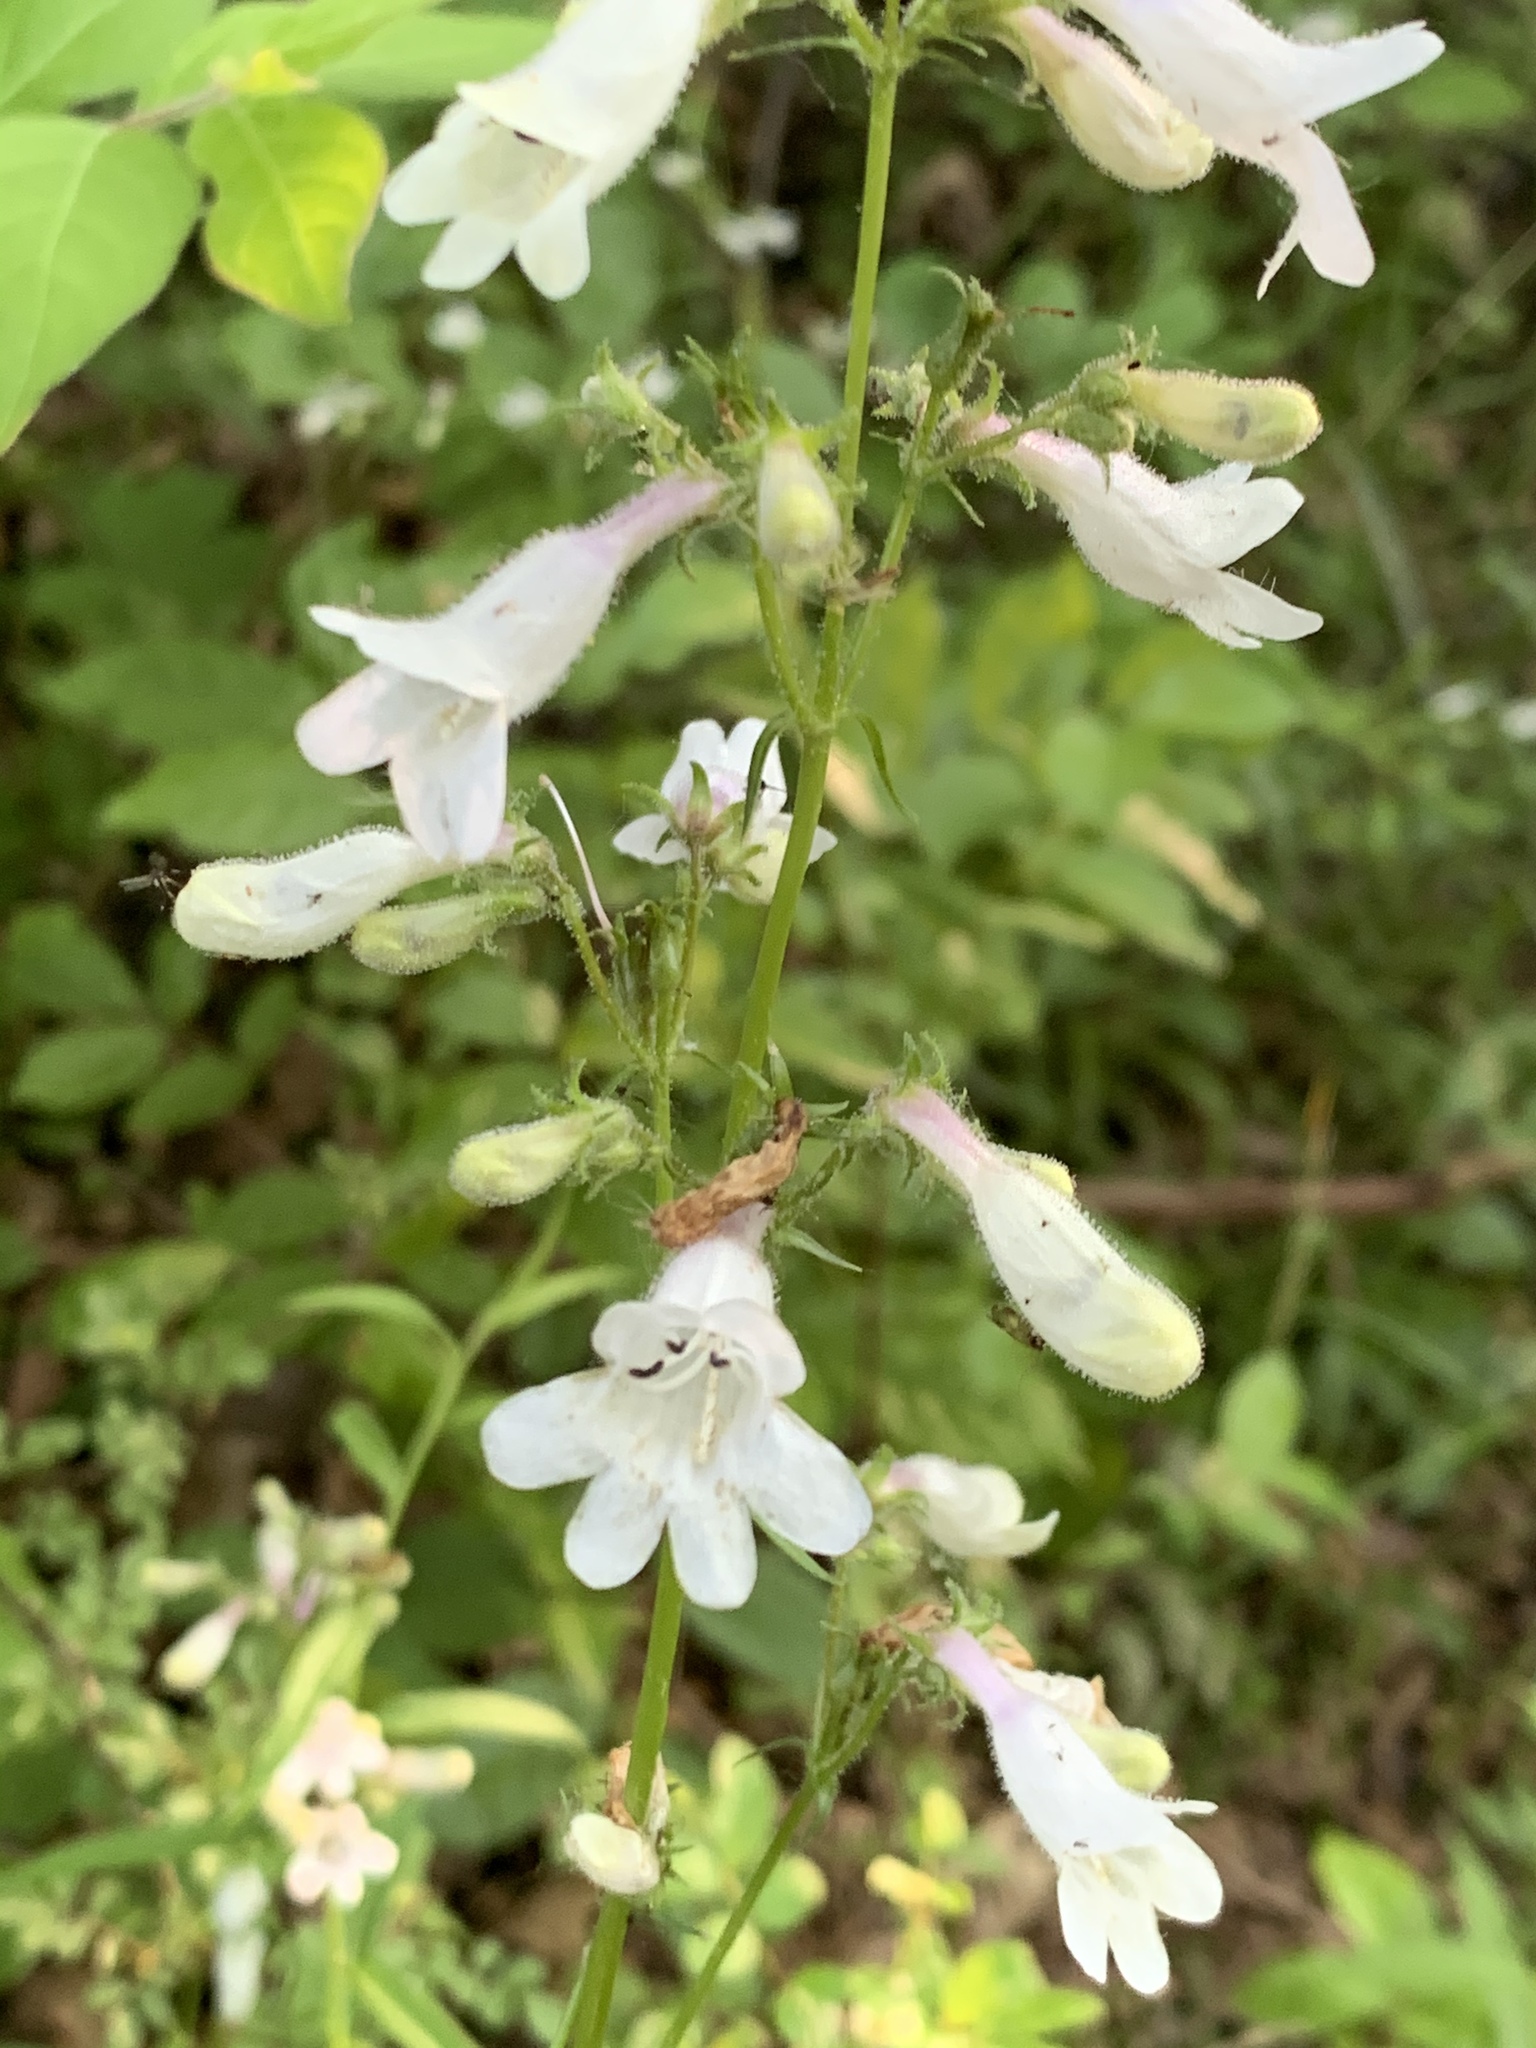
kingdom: Plantae
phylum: Tracheophyta
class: Magnoliopsida
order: Lamiales
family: Plantaginaceae
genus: Penstemon
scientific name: Penstemon digitalis
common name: Foxglove beardtongue
